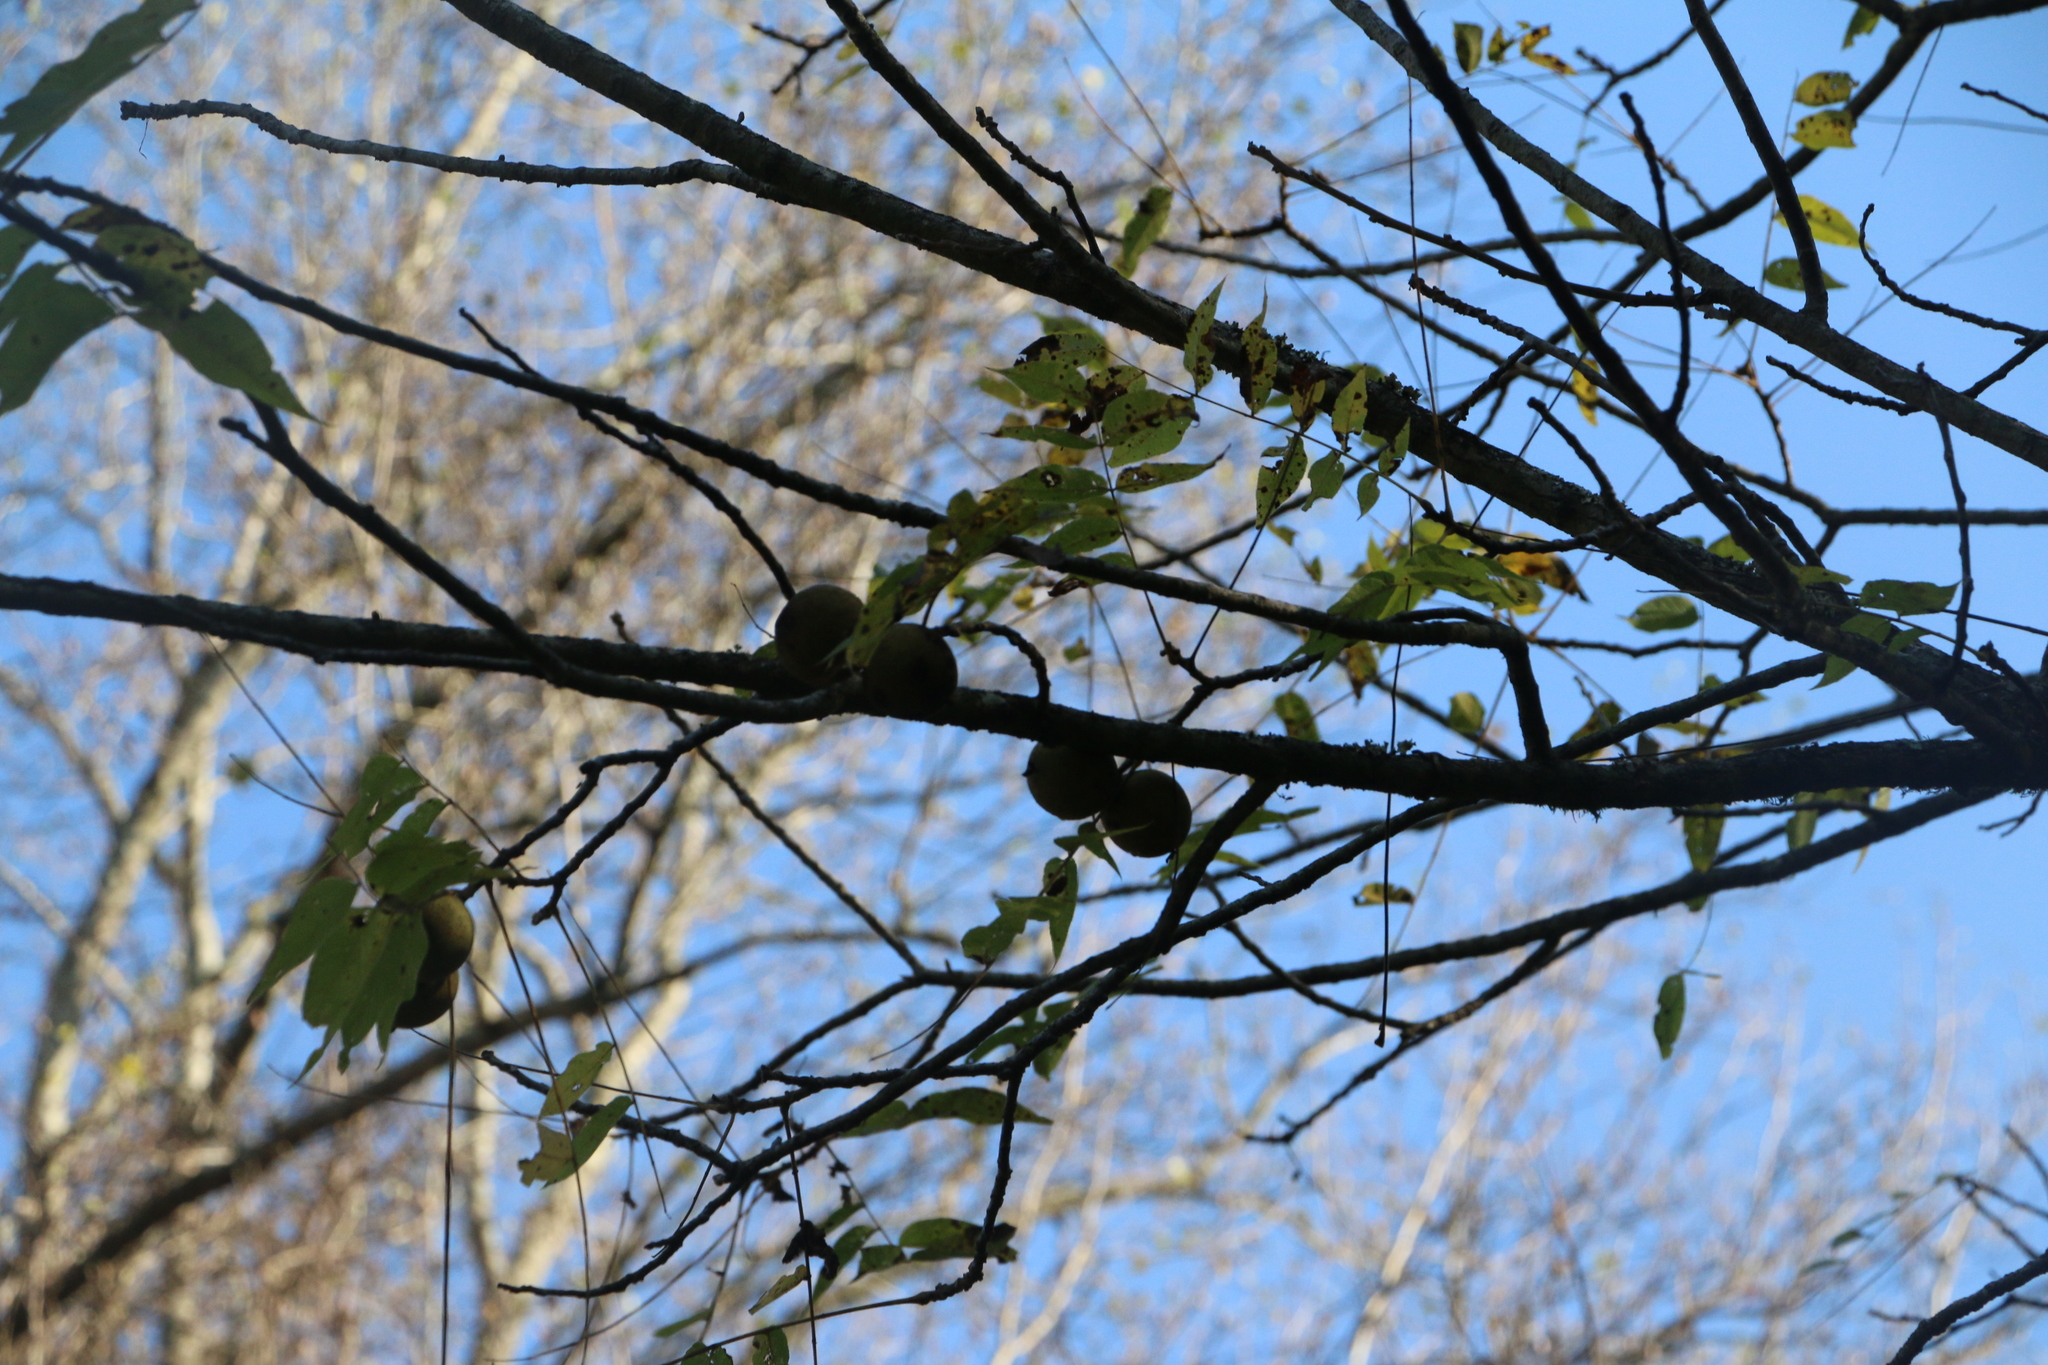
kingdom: Plantae
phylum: Tracheophyta
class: Magnoliopsida
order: Fagales
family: Juglandaceae
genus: Juglans
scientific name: Juglans nigra
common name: Black walnut
